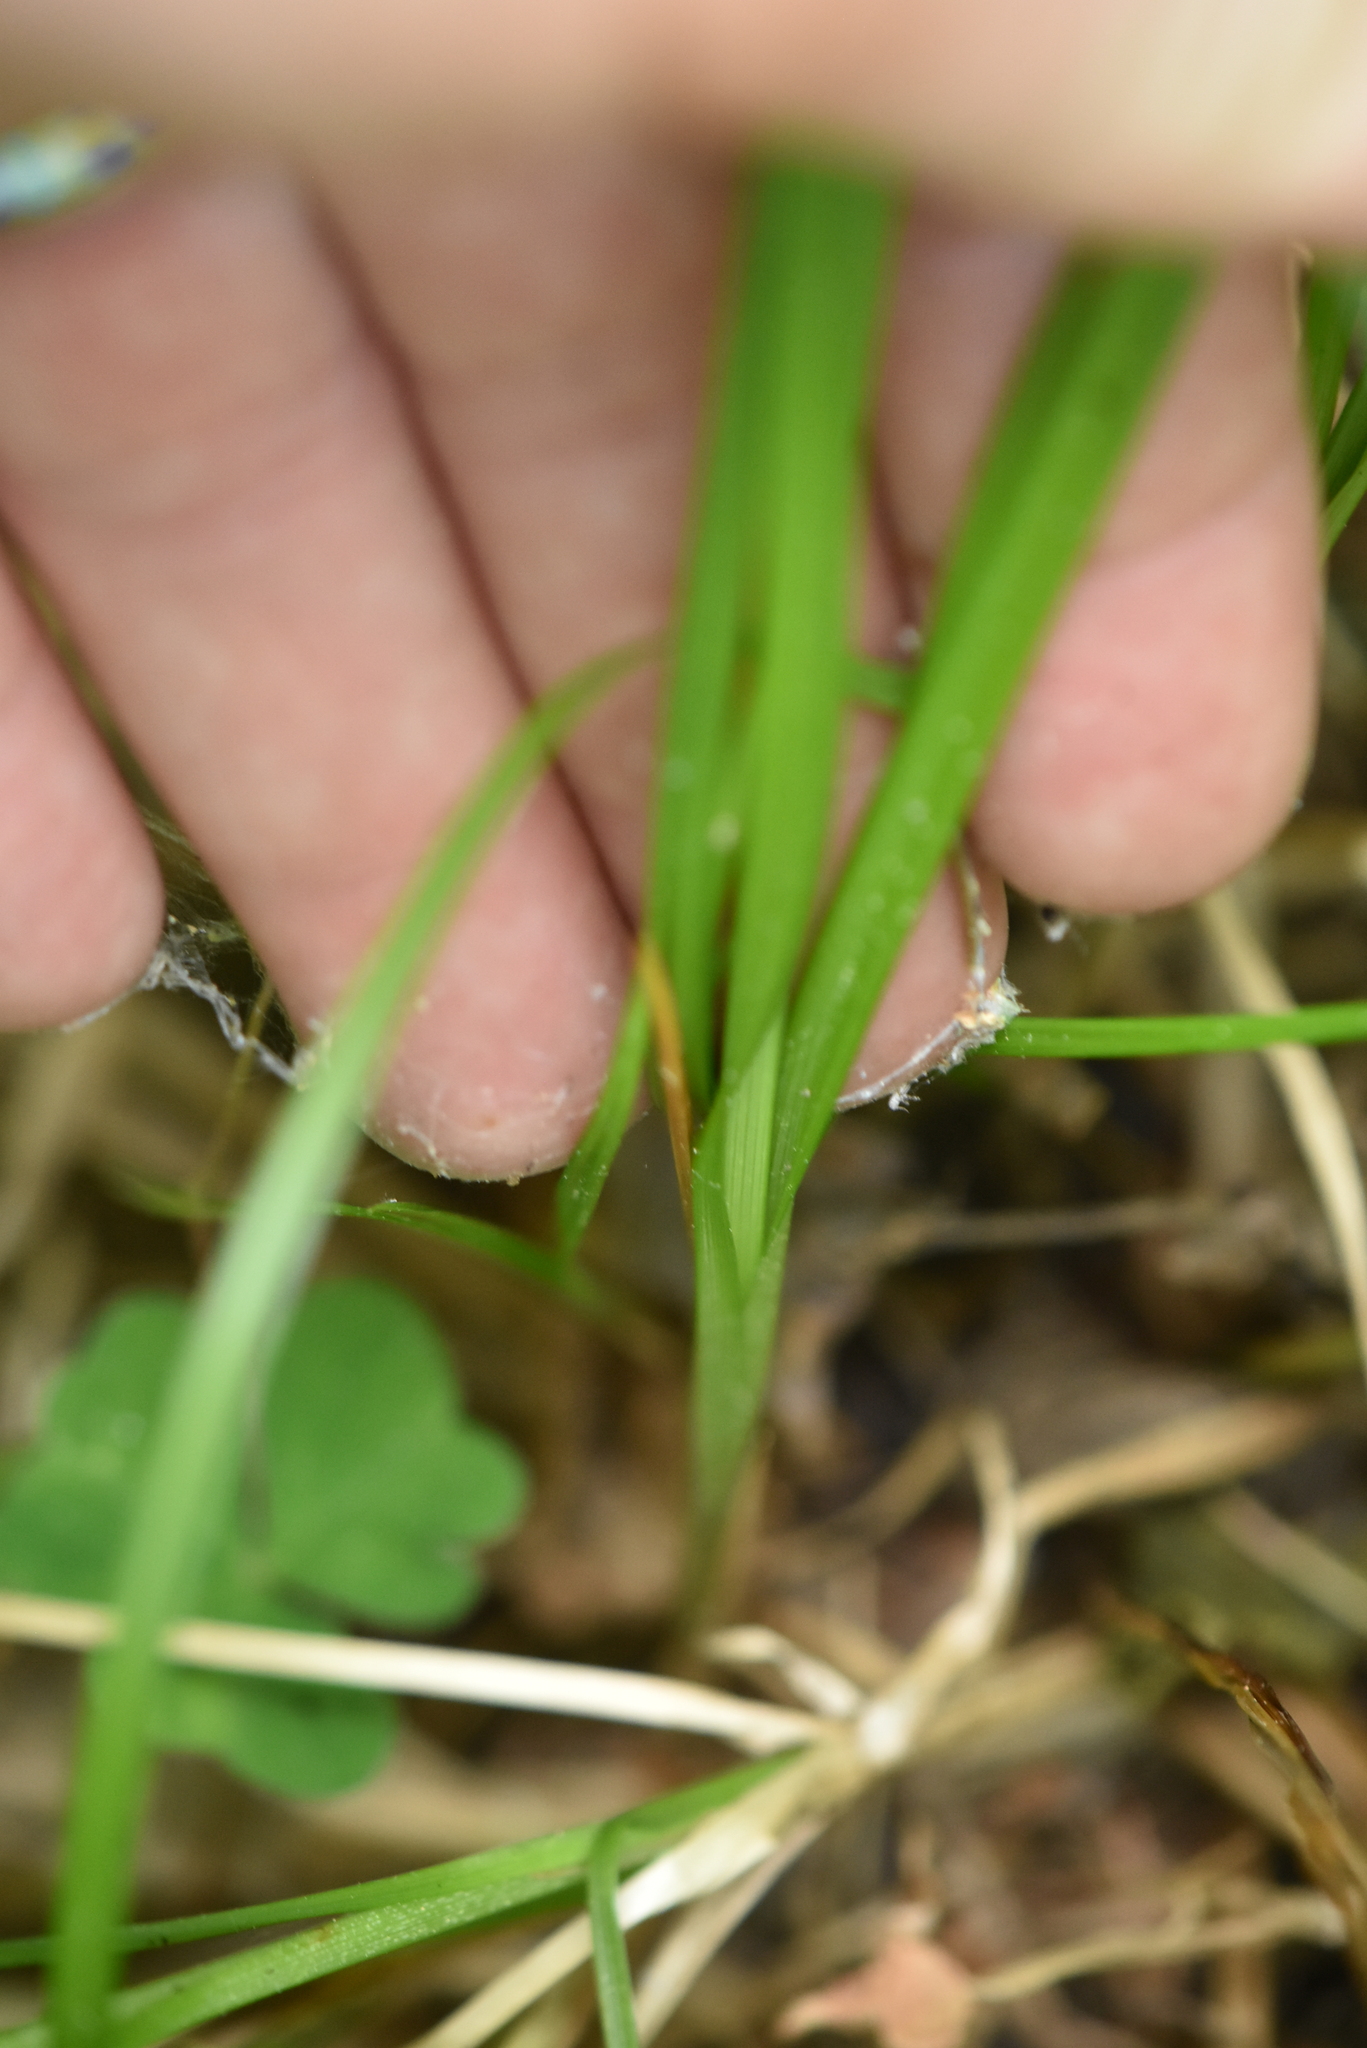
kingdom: Plantae
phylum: Tracheophyta
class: Liliopsida
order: Poales
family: Cyperaceae
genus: Carex
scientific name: Carex elongata
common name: Elongated sedge
